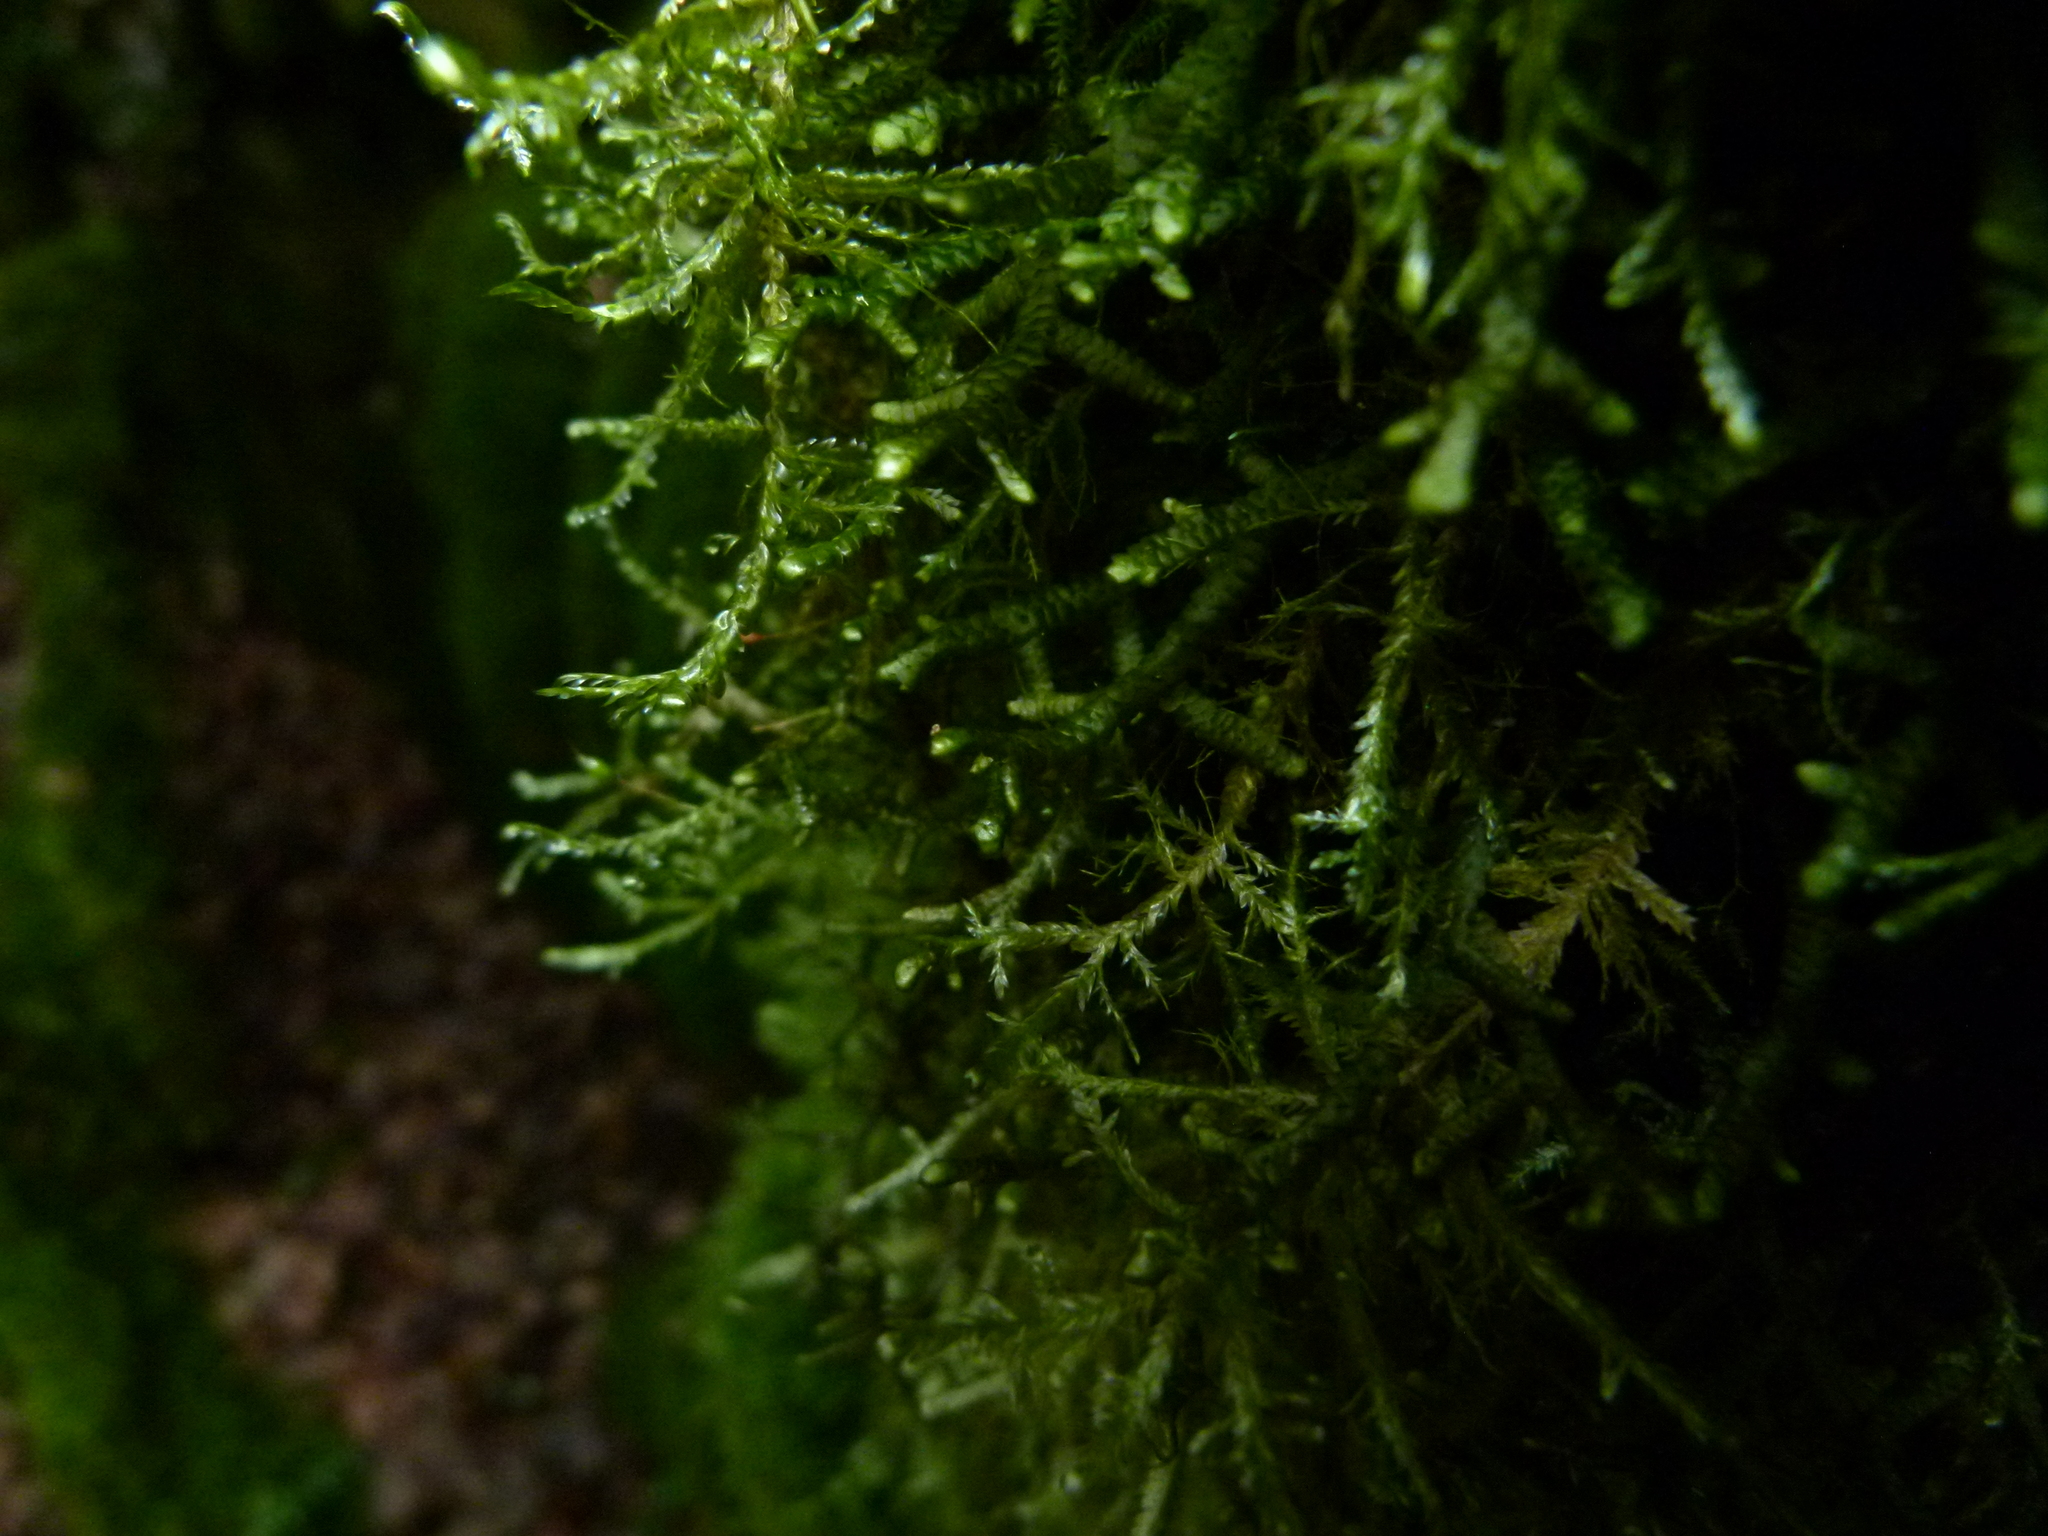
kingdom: Plantae
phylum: Bryophyta
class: Bryopsida
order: Hypnales
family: Neckeraceae
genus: Alleniella
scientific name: Alleniella complanata
